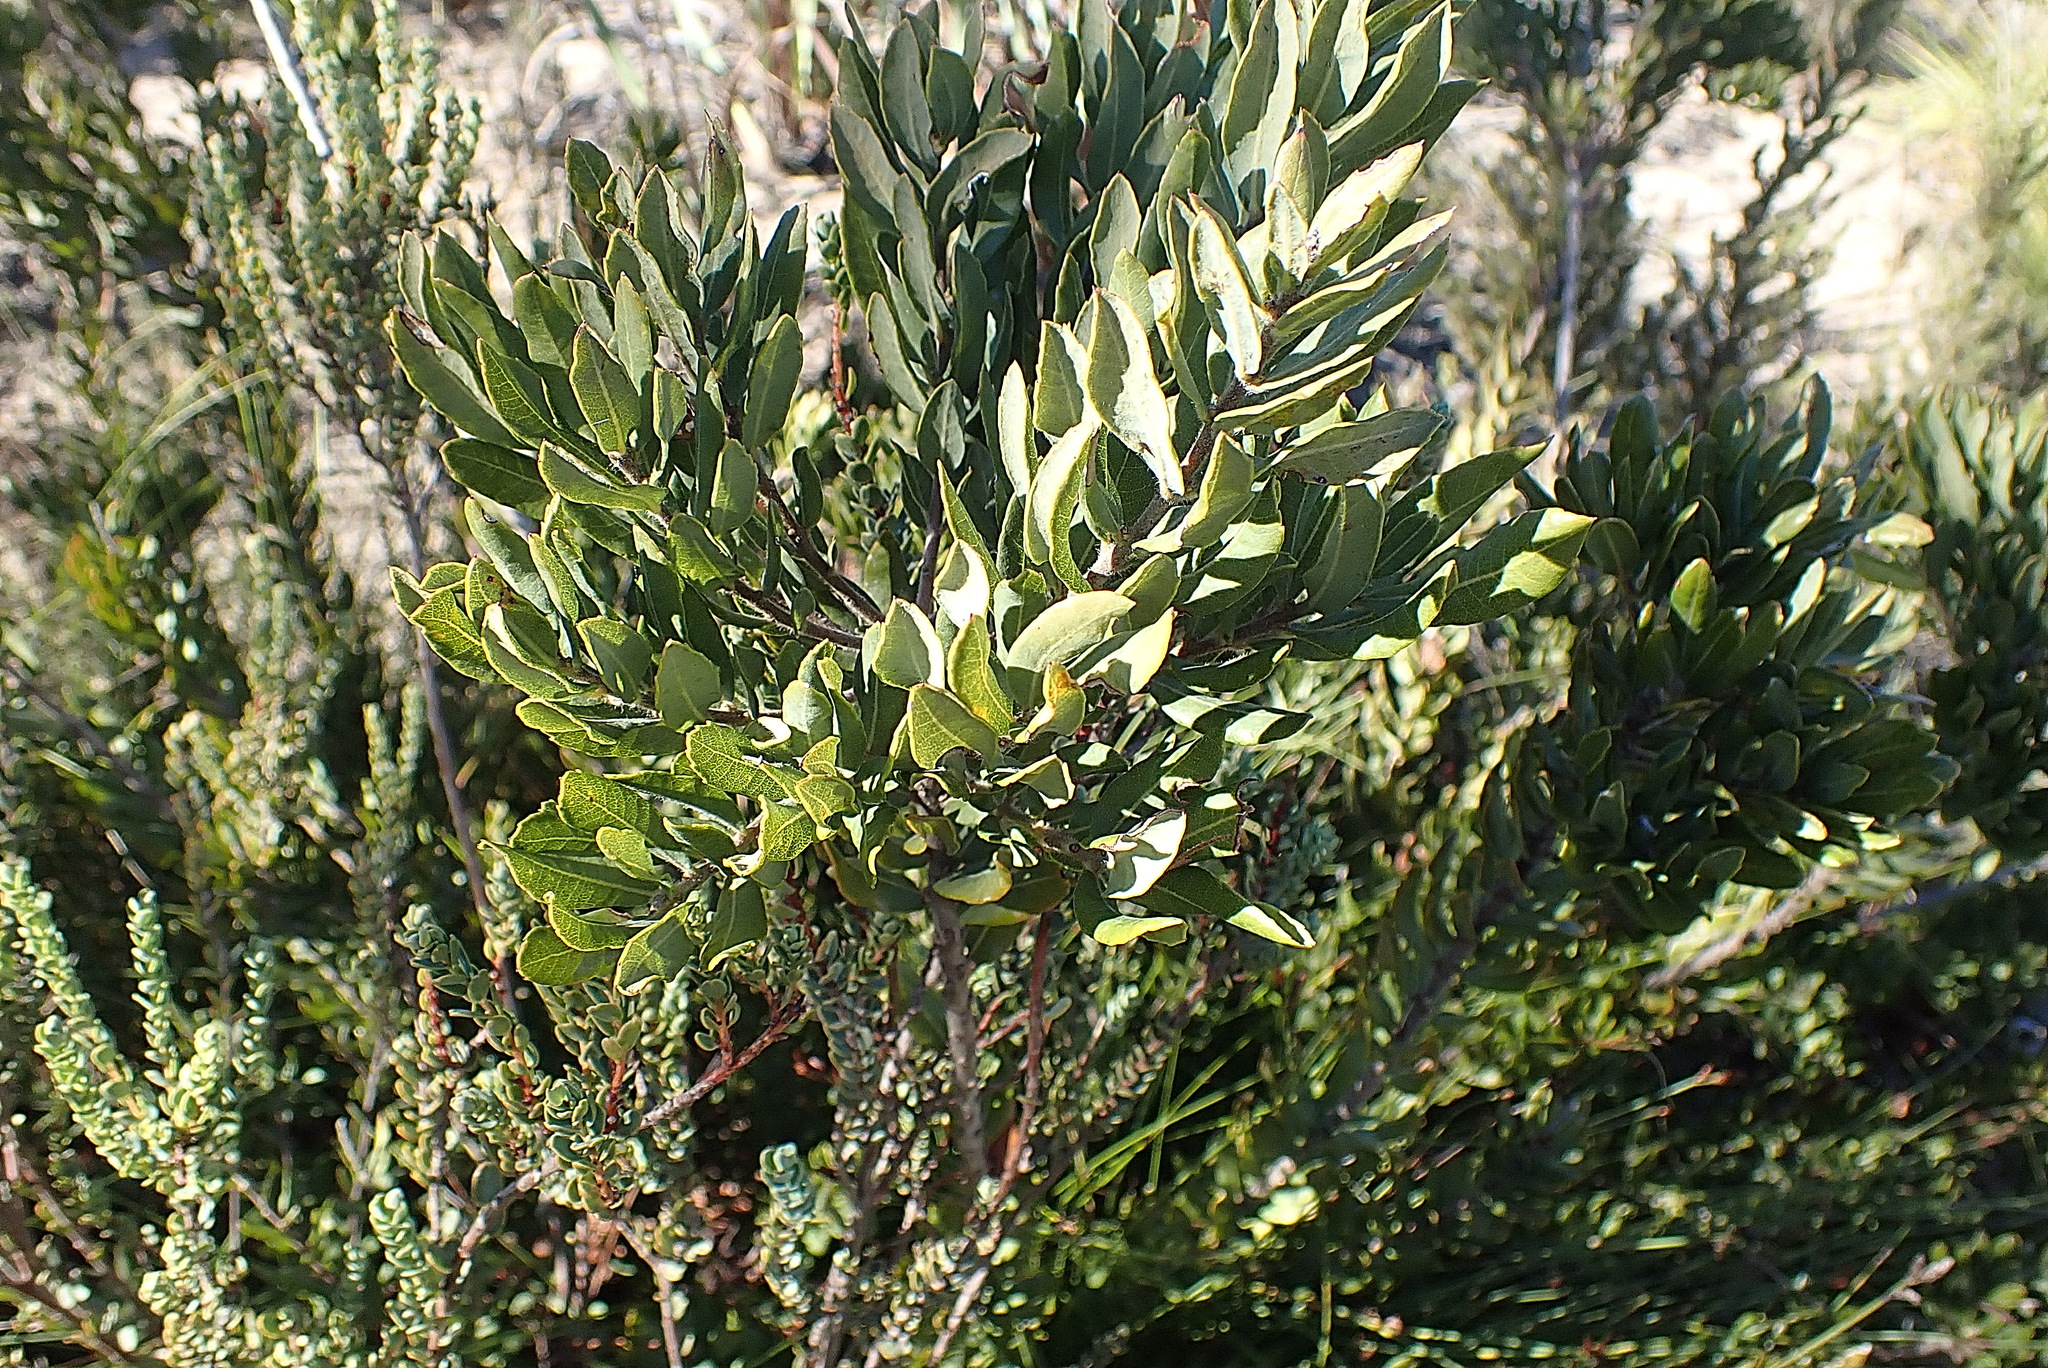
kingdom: Plantae
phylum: Tracheophyta
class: Magnoliopsida
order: Fagales
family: Myricaceae
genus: Morella
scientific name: Morella humilis
